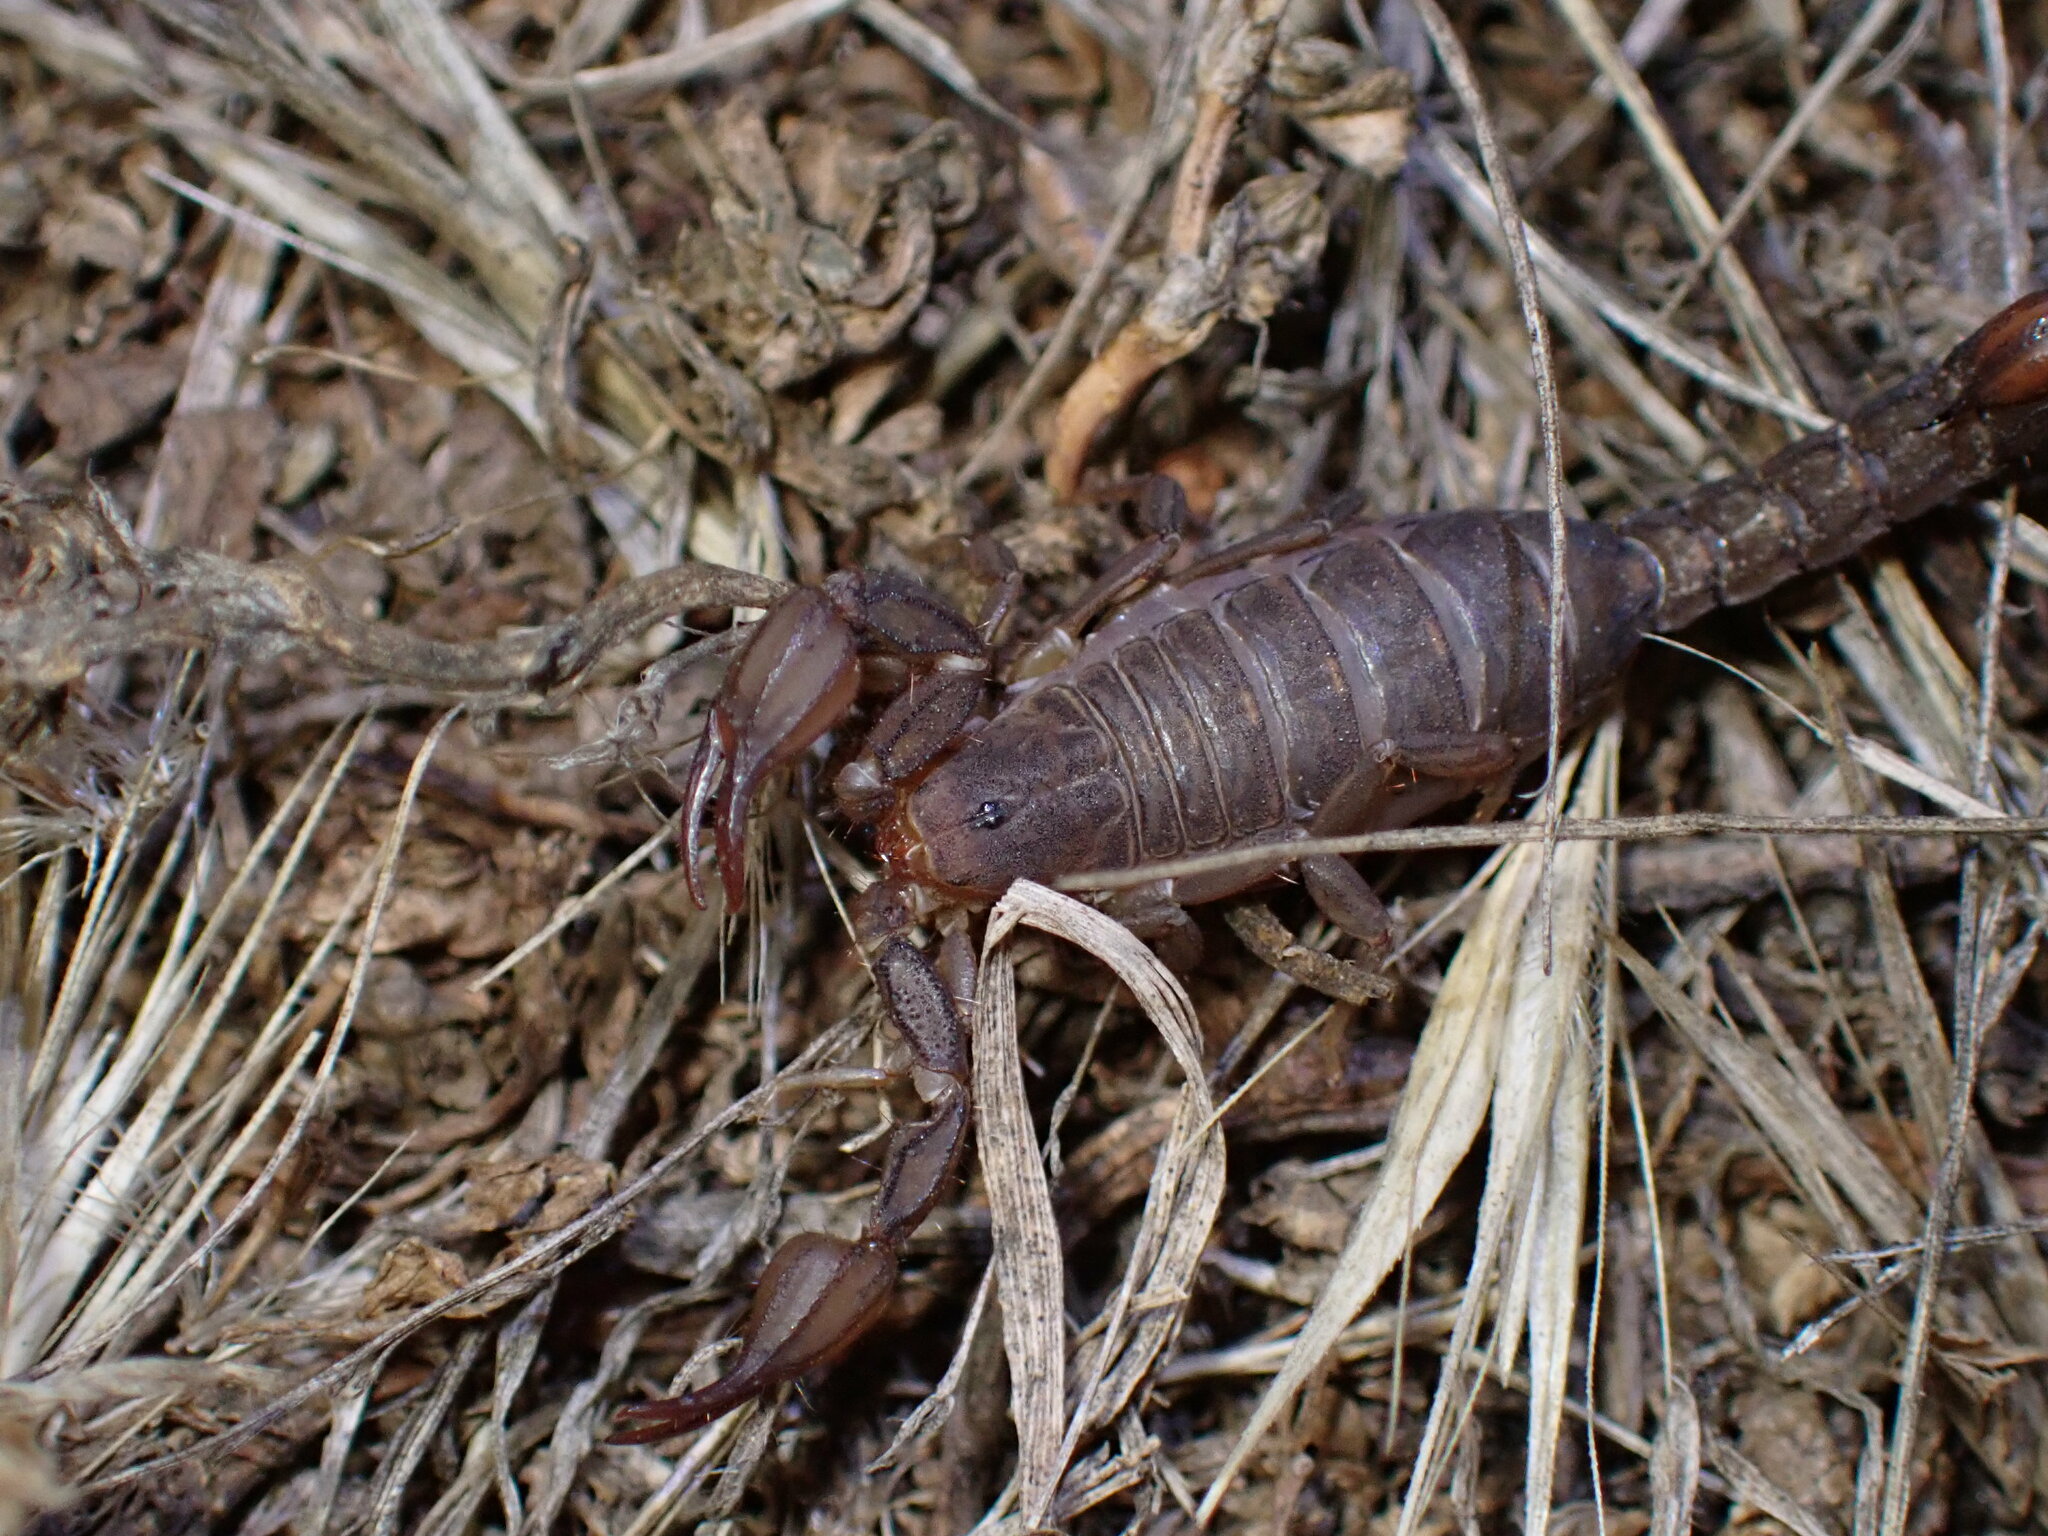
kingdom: Animalia
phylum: Arthropoda
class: Arachnida
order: Scorpiones
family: Vaejovidae
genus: Catalinia
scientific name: Catalinia thompsoni
